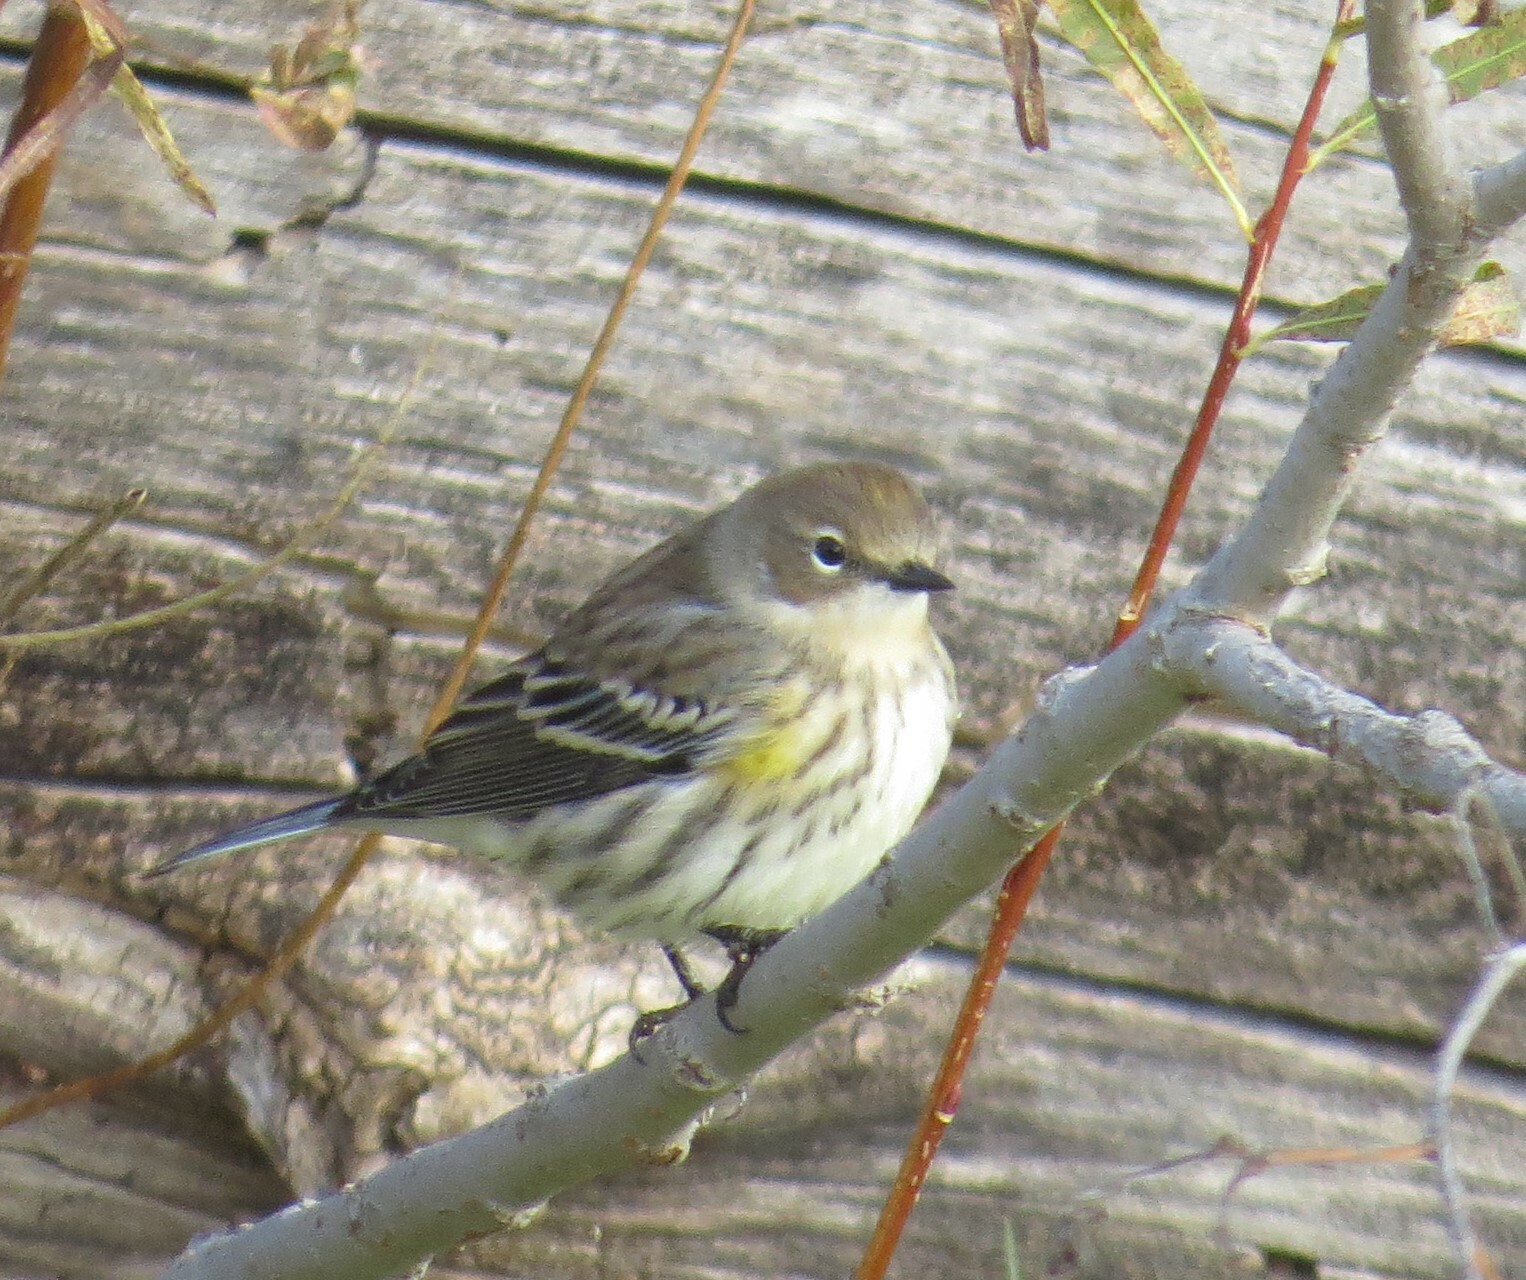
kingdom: Animalia
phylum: Chordata
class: Aves
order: Passeriformes
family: Parulidae
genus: Setophaga
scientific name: Setophaga coronata
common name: Myrtle warbler
